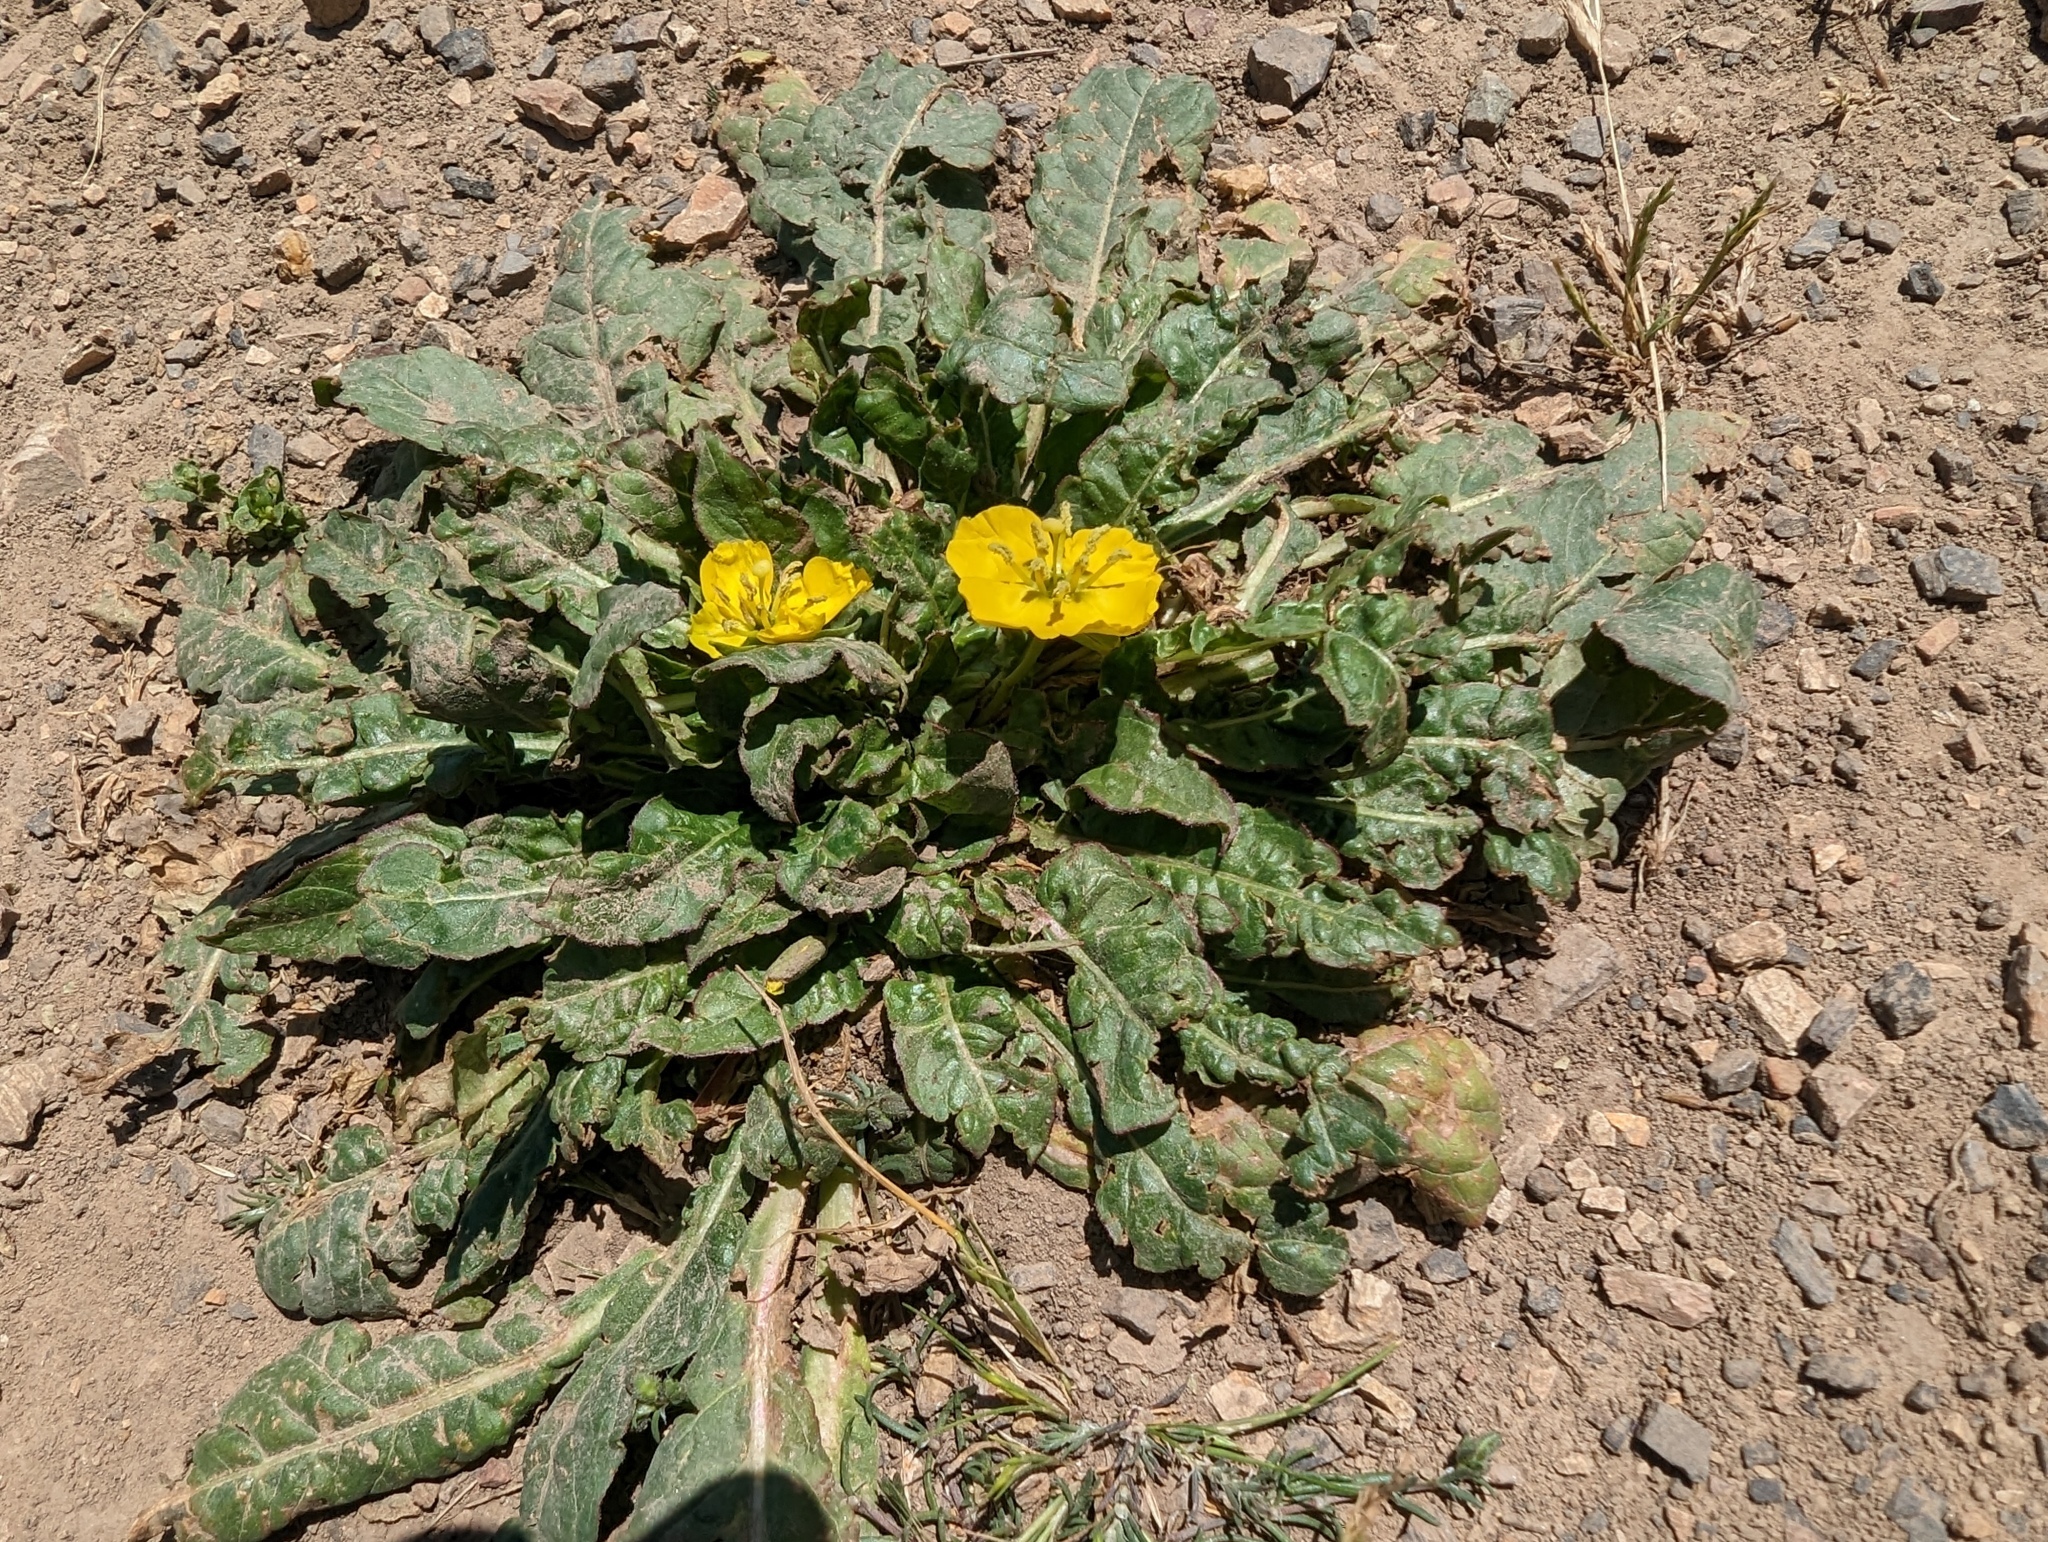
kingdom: Plantae
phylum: Tracheophyta
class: Magnoliopsida
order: Myrtales
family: Onagraceae
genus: Taraxia
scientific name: Taraxia ovata
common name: Goldeneggs
